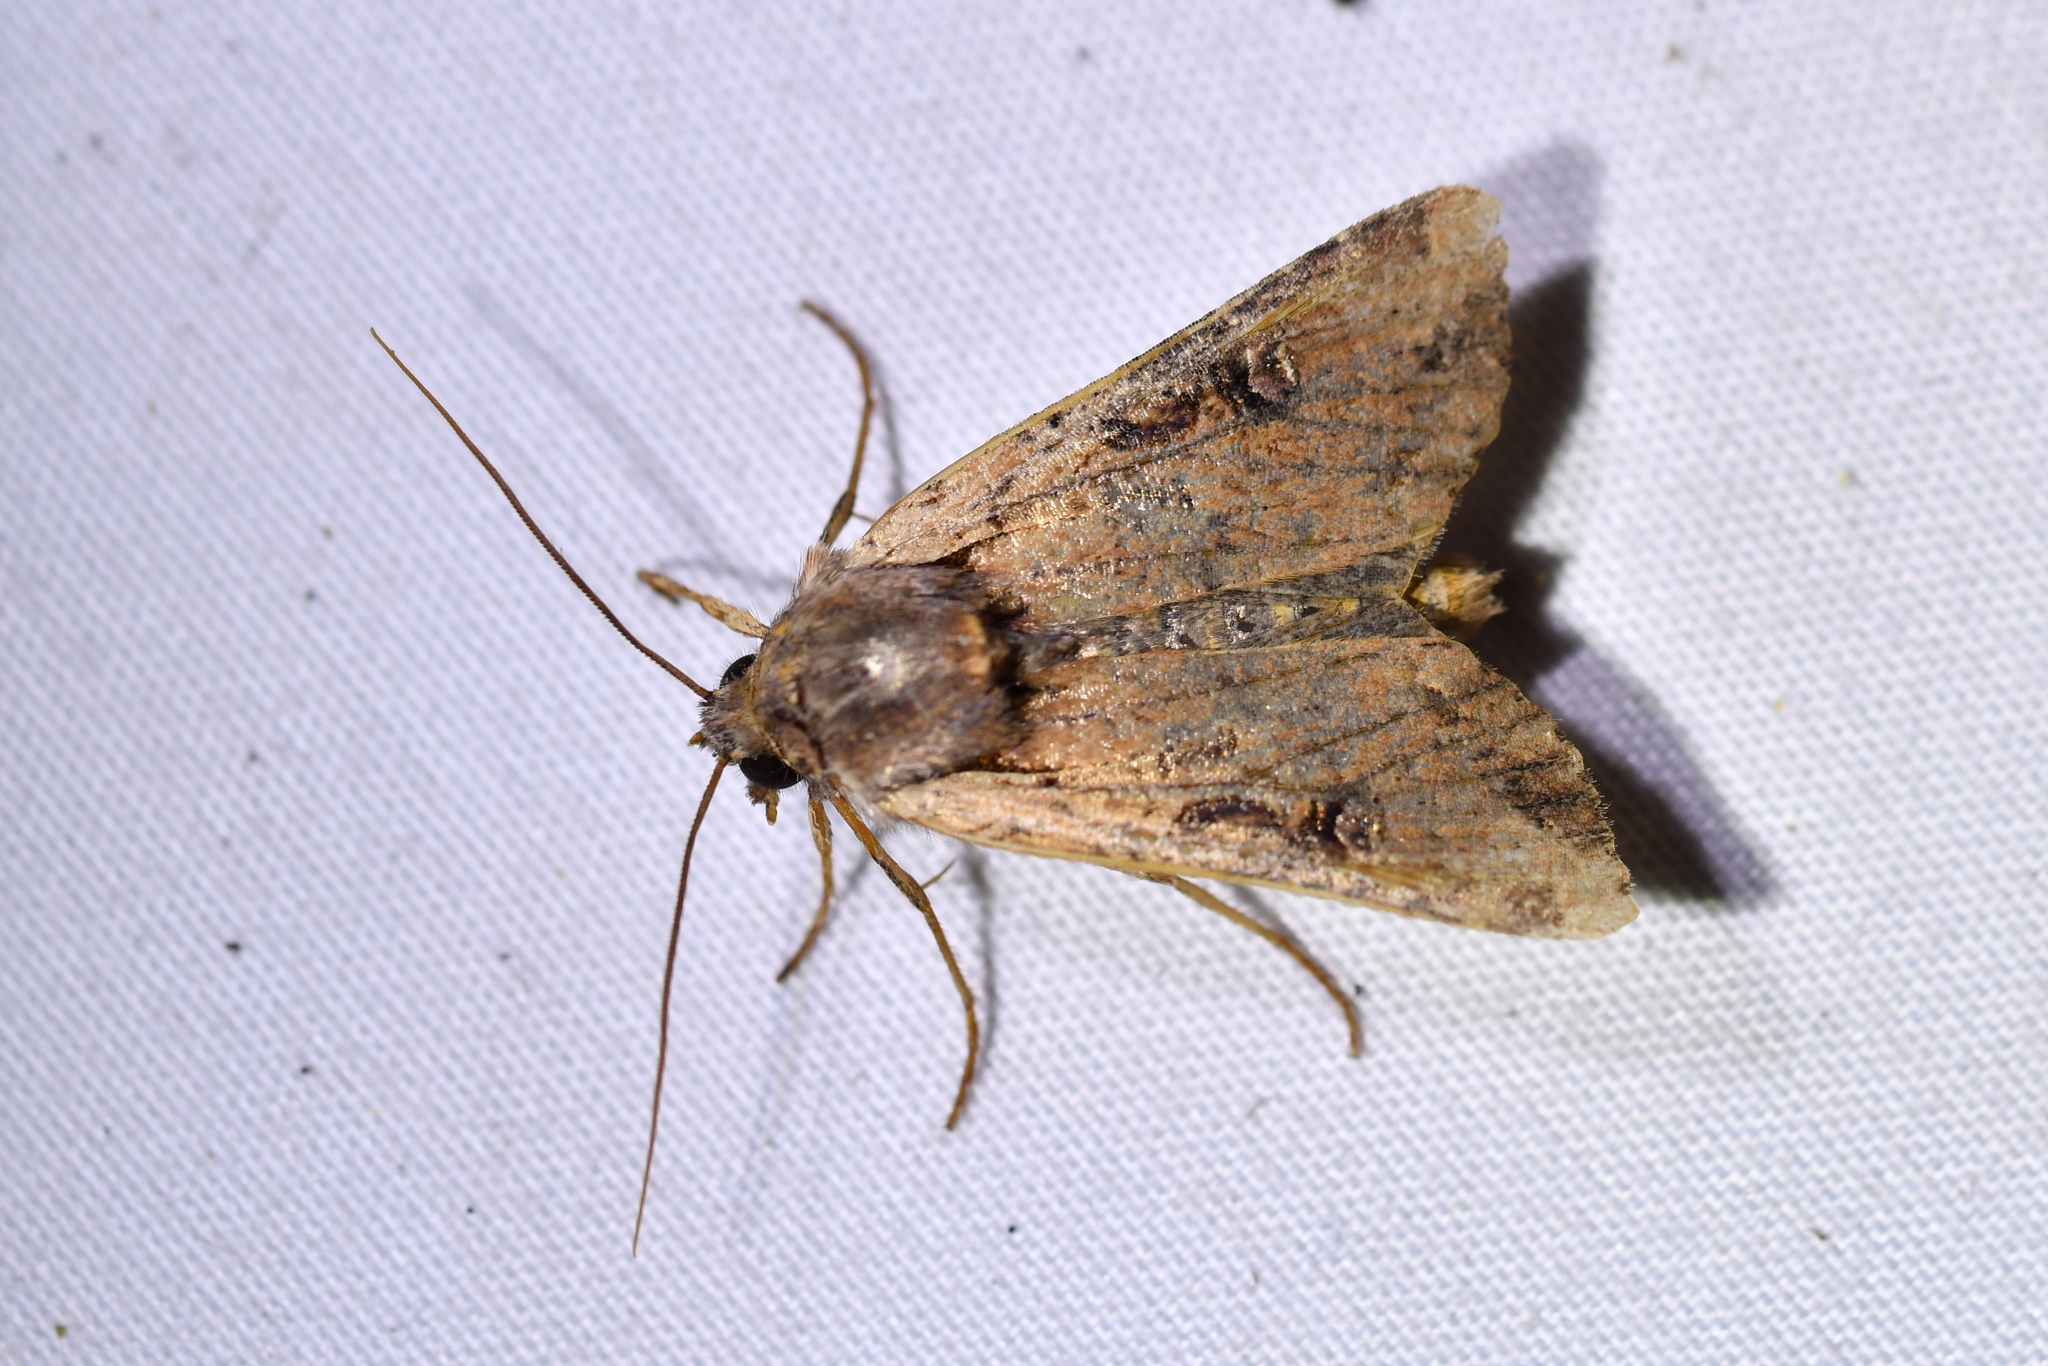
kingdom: Animalia
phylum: Arthropoda
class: Insecta
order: Lepidoptera
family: Noctuidae
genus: Ichneutica
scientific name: Ichneutica omoplaca
